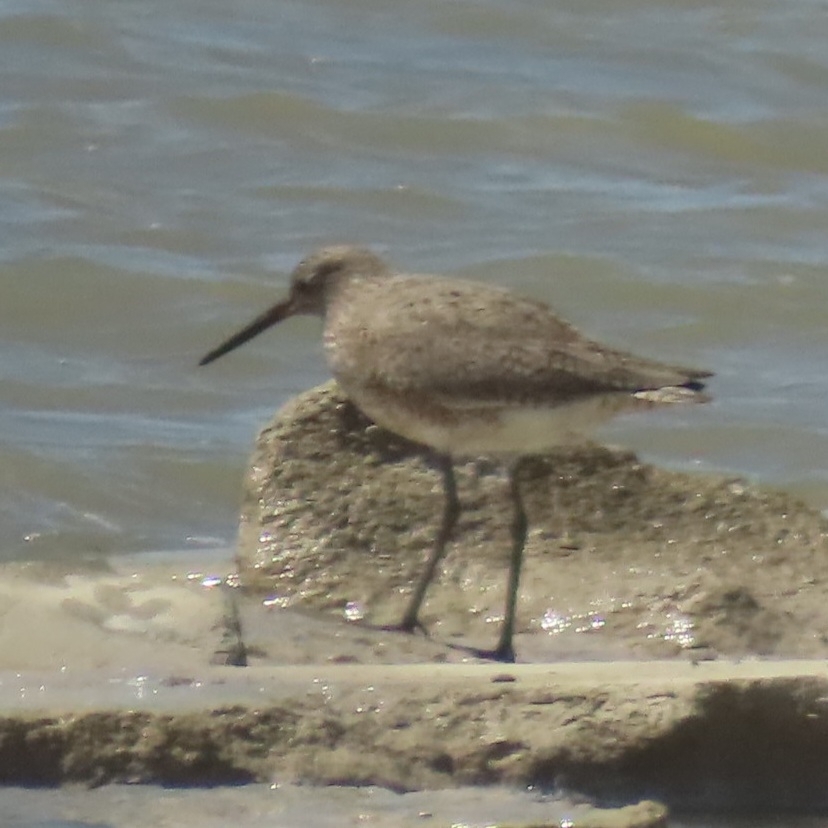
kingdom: Animalia
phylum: Chordata
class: Aves
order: Charadriiformes
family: Scolopacidae
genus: Tringa
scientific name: Tringa semipalmata
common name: Willet
